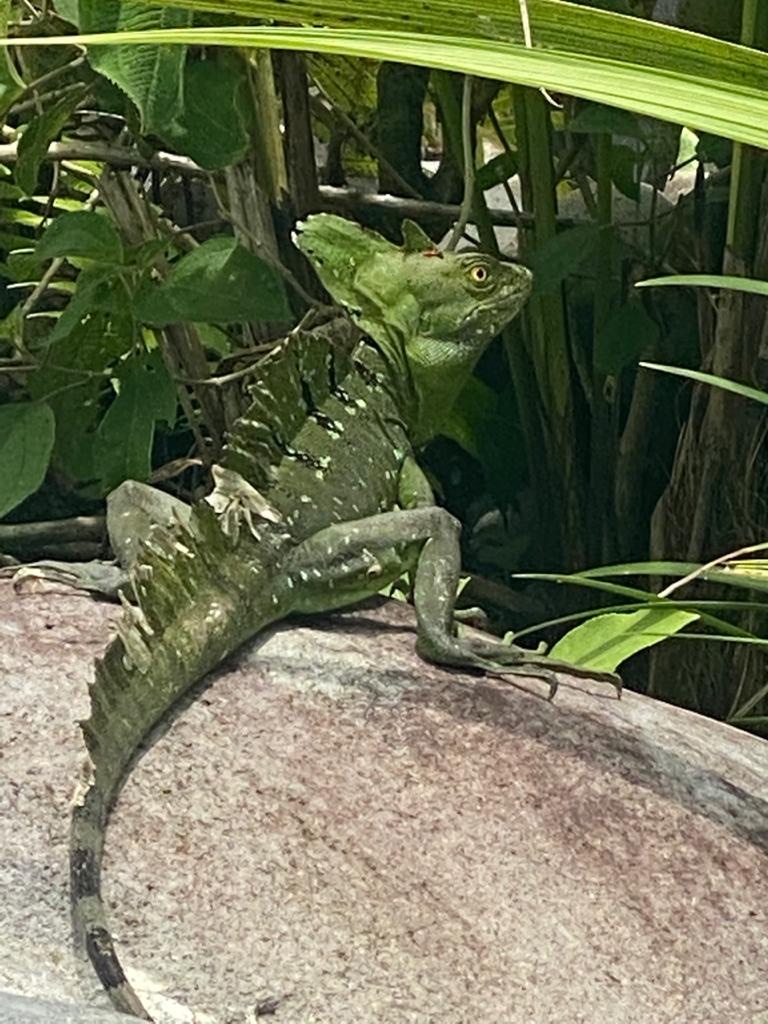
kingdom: Animalia
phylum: Chordata
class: Squamata
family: Corytophanidae
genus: Basiliscus
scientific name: Basiliscus plumifrons
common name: Green basilisk
